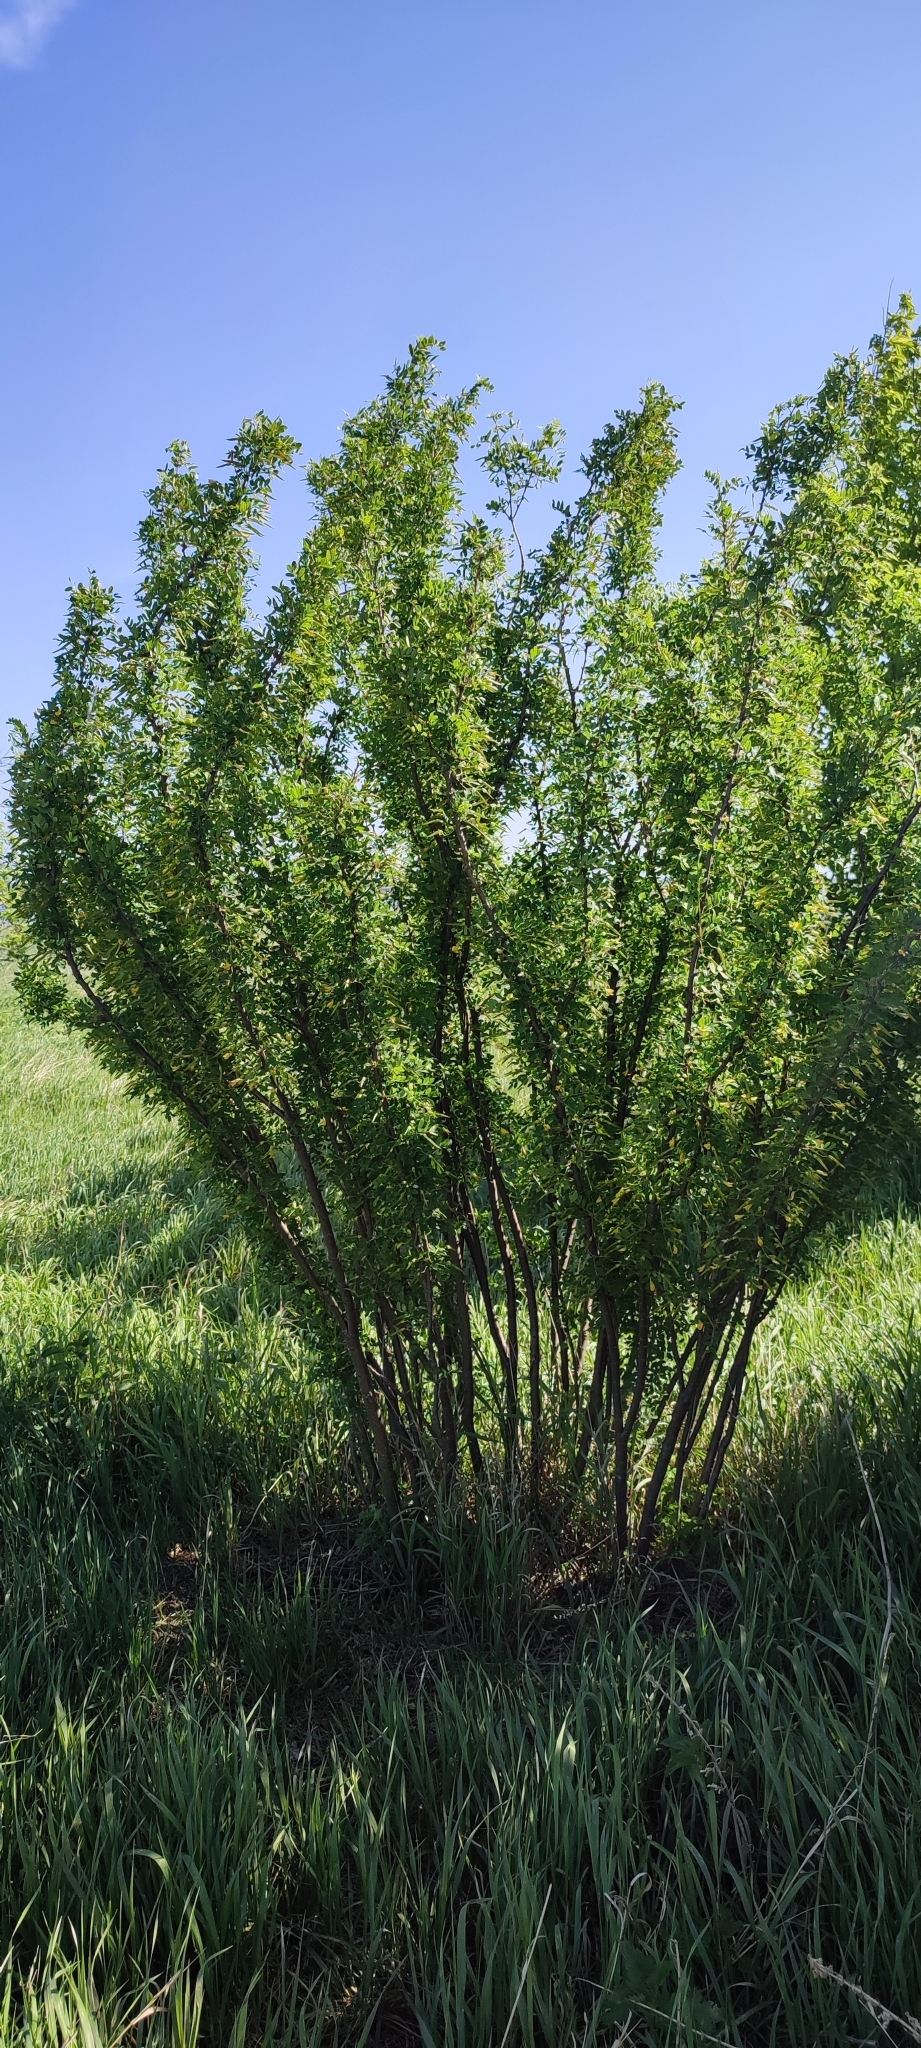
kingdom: Plantae
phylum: Tracheophyta
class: Magnoliopsida
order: Fabales
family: Fabaceae
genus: Caragana
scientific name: Caragana arborescens
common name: Siberian peashrub
